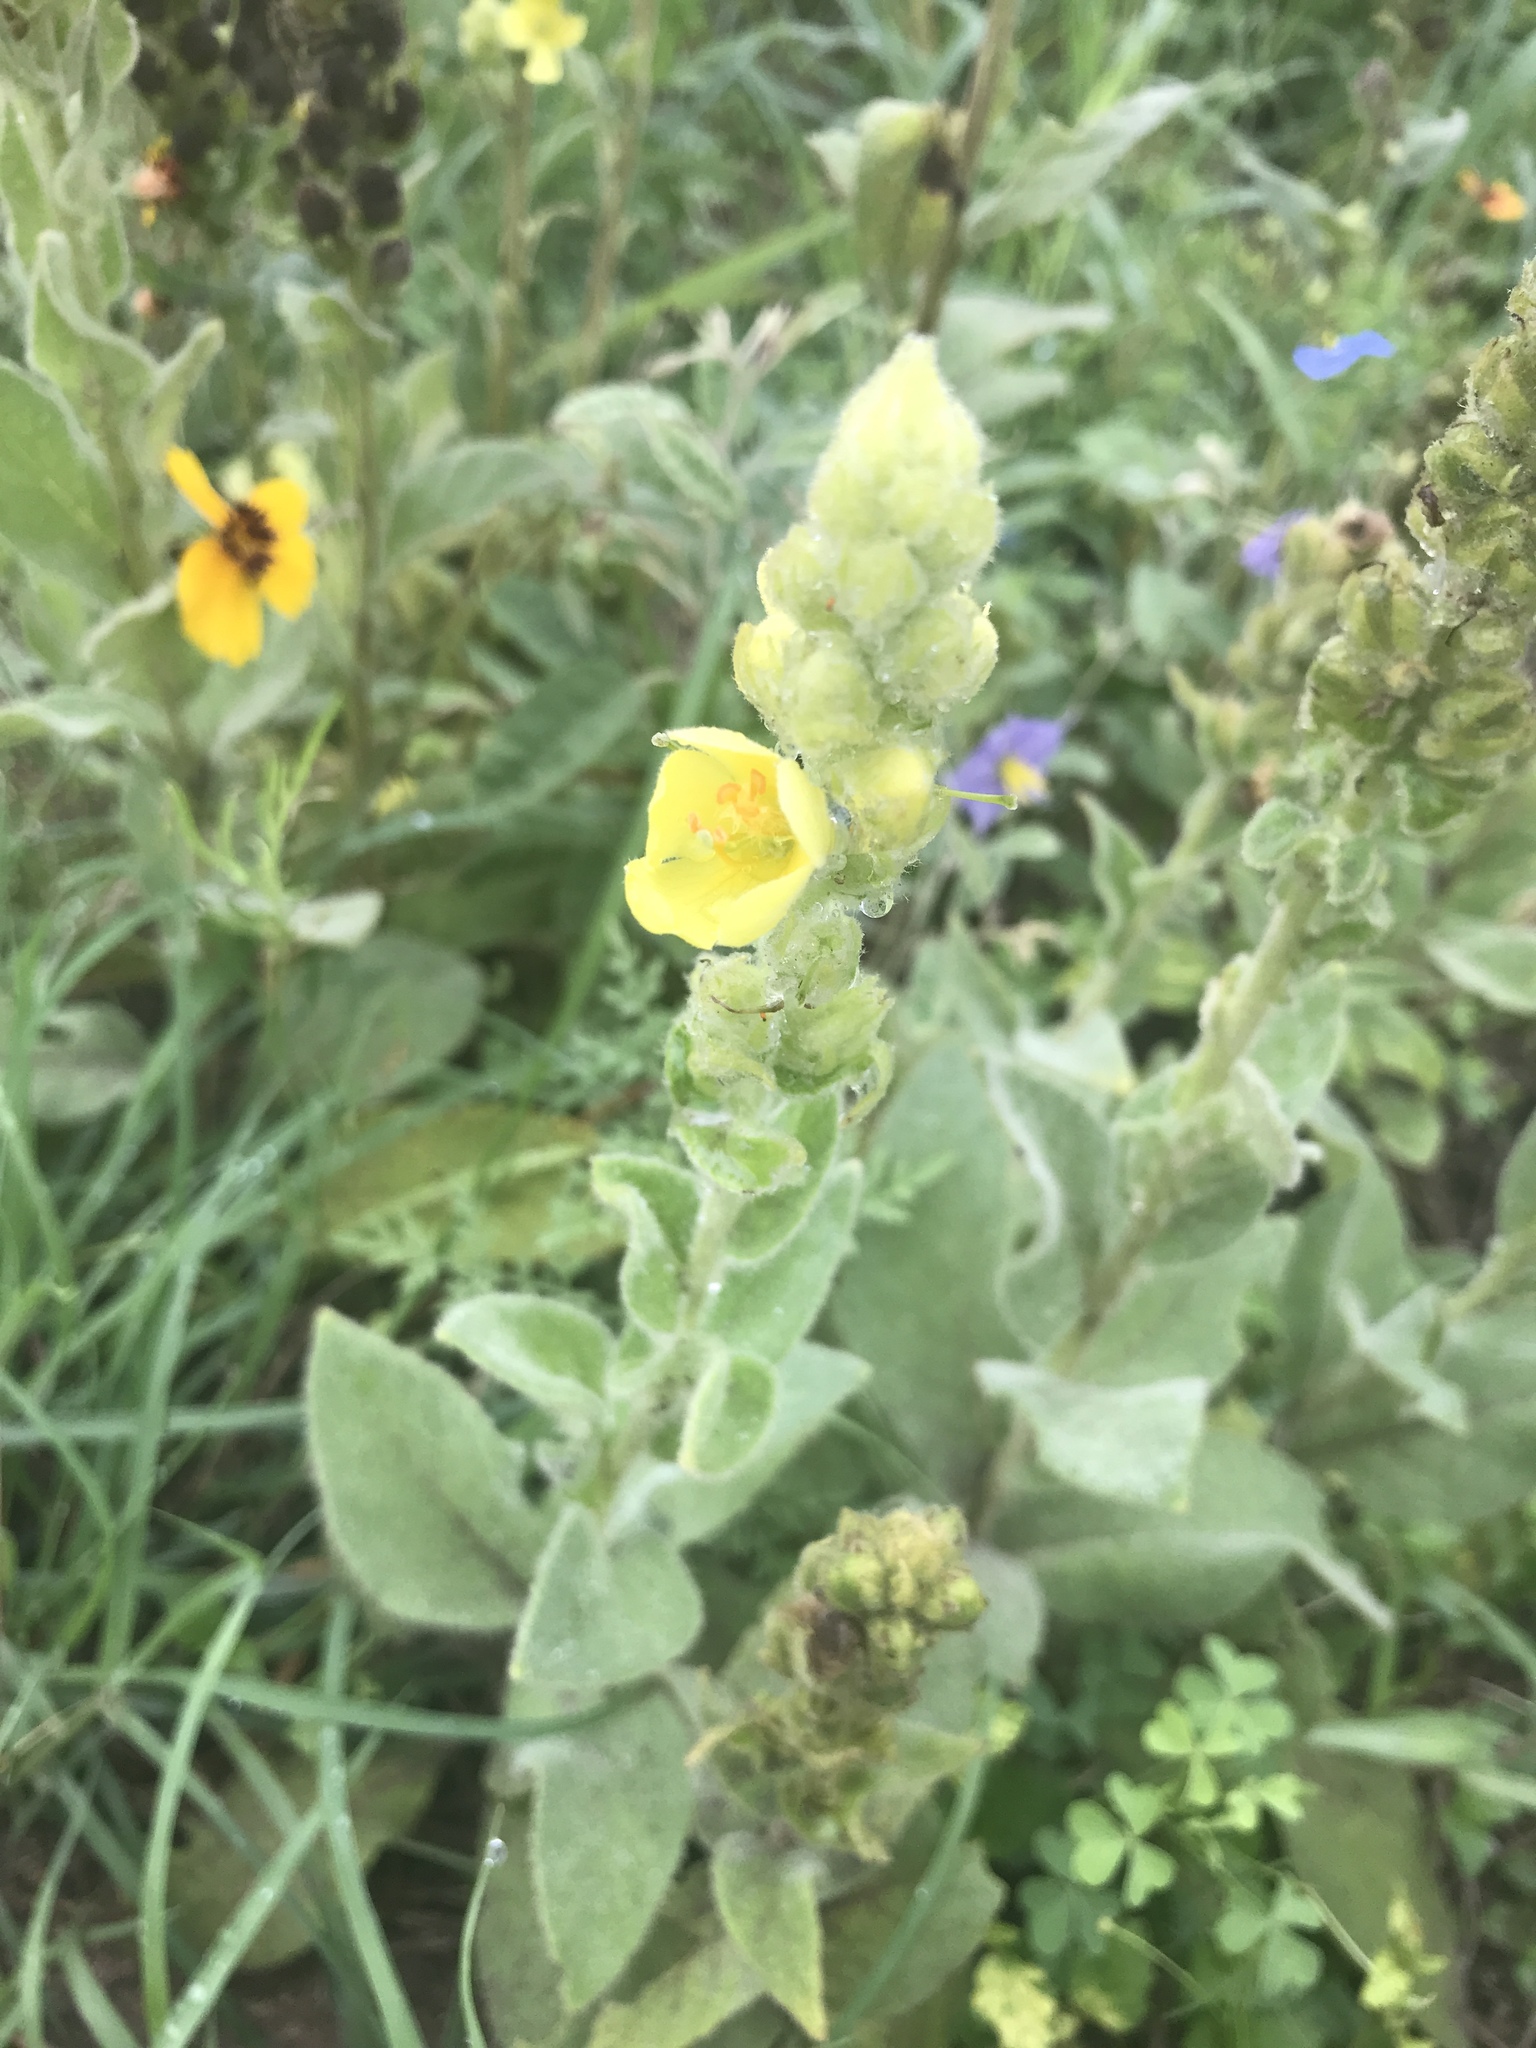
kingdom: Plantae
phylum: Tracheophyta
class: Magnoliopsida
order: Lamiales
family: Scrophulariaceae
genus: Verbascum
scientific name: Verbascum thapsus
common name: Common mullein
